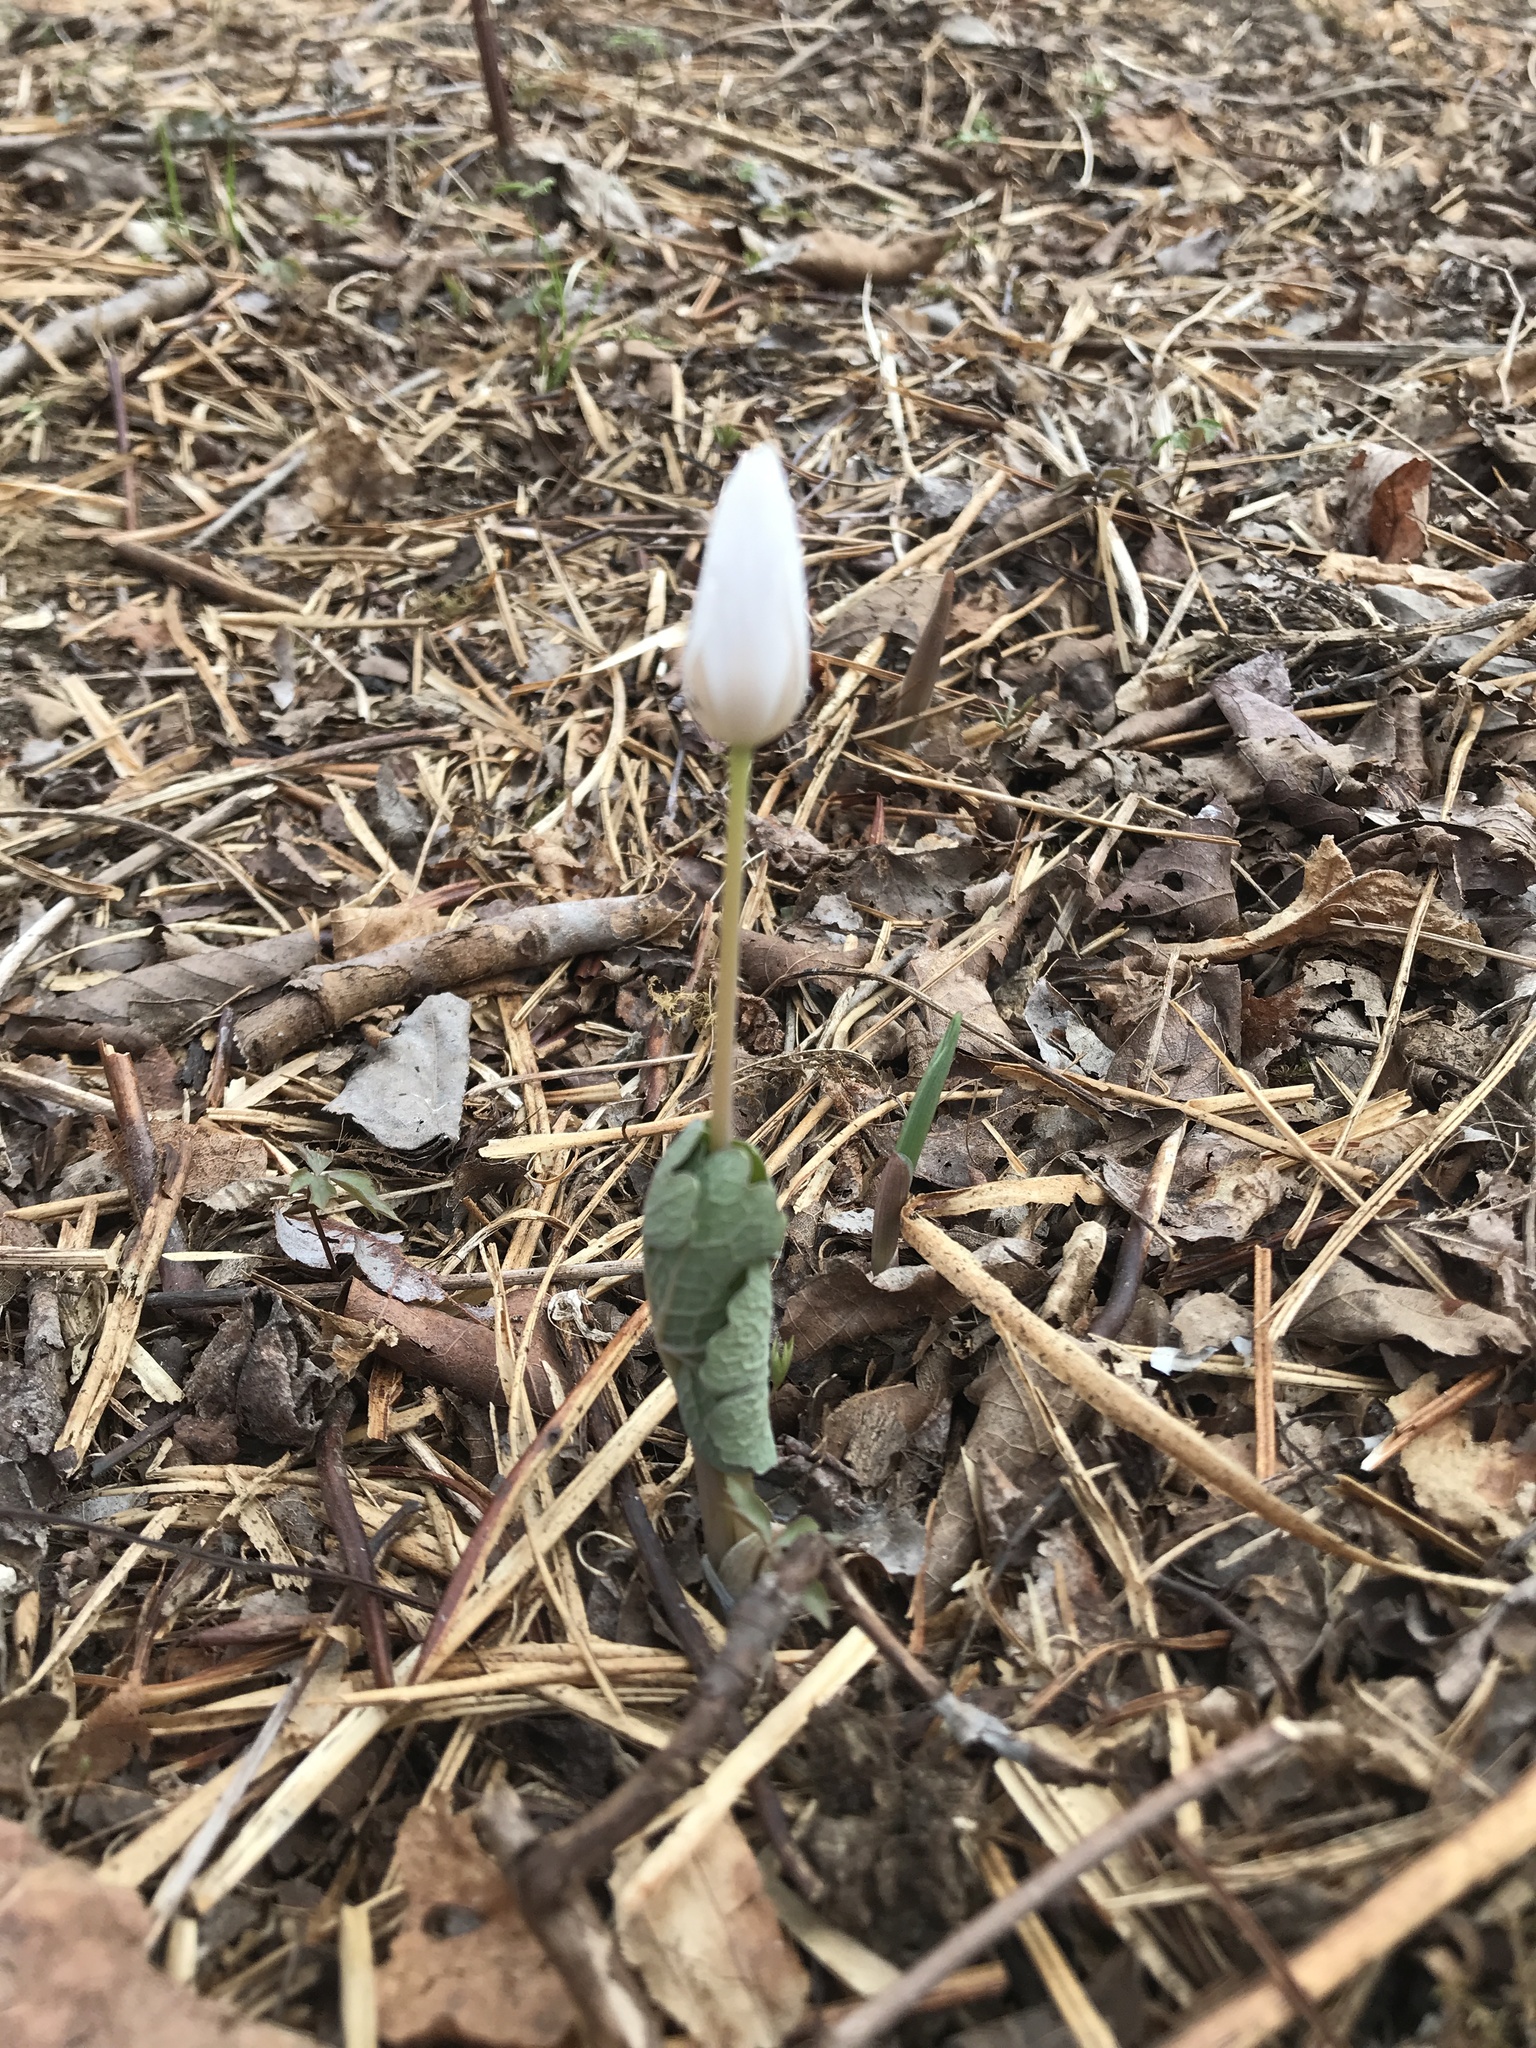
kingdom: Plantae
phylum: Tracheophyta
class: Magnoliopsida
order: Ranunculales
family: Papaveraceae
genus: Sanguinaria
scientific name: Sanguinaria canadensis
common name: Bloodroot
